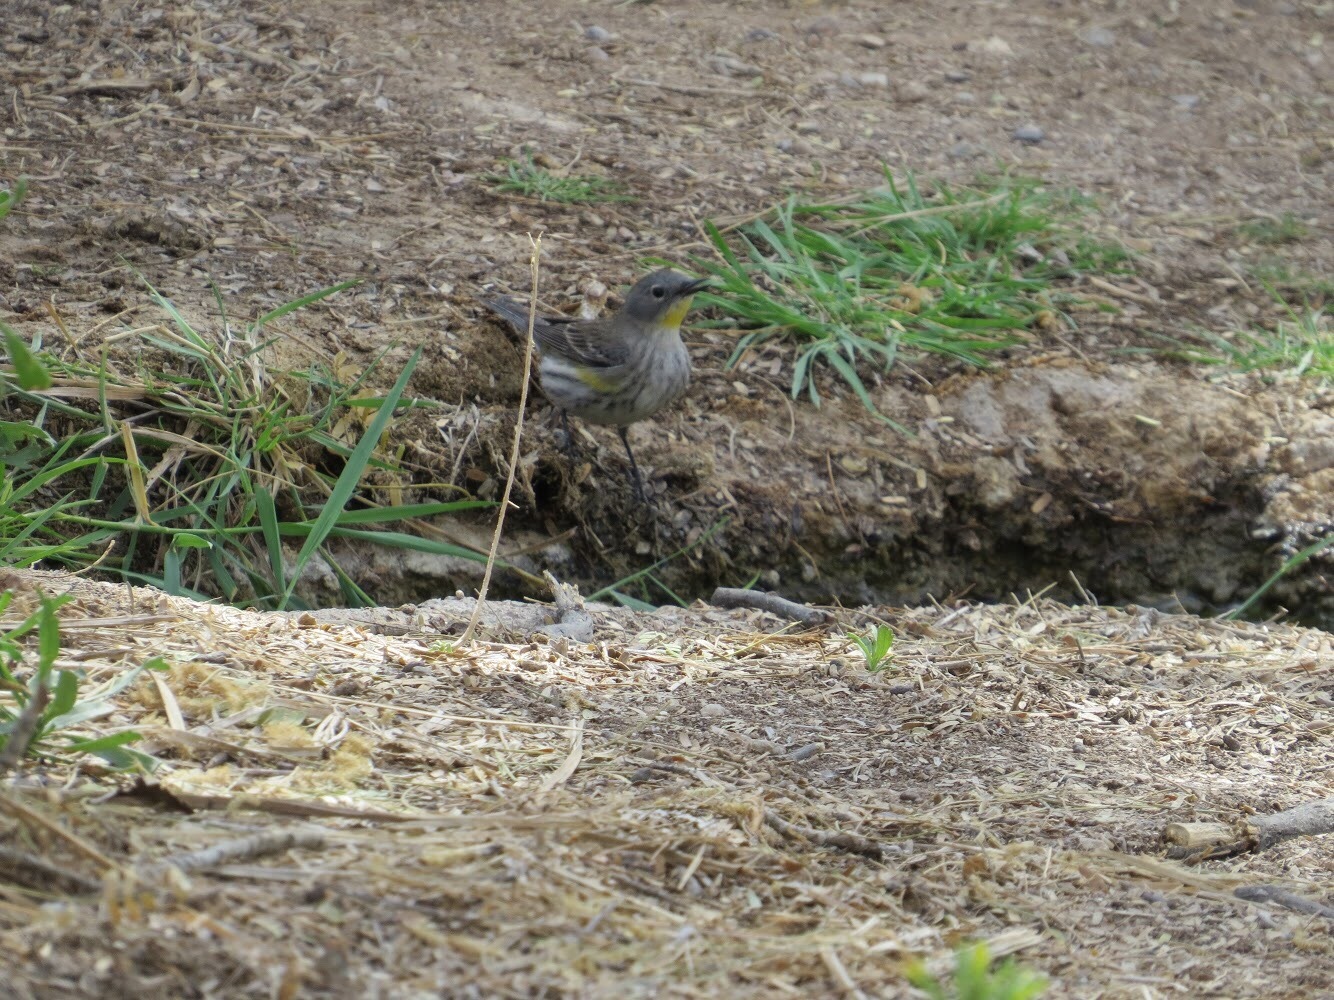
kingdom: Animalia
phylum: Chordata
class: Aves
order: Passeriformes
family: Parulidae
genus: Setophaga
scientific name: Setophaga auduboni
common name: Audubon's warbler
